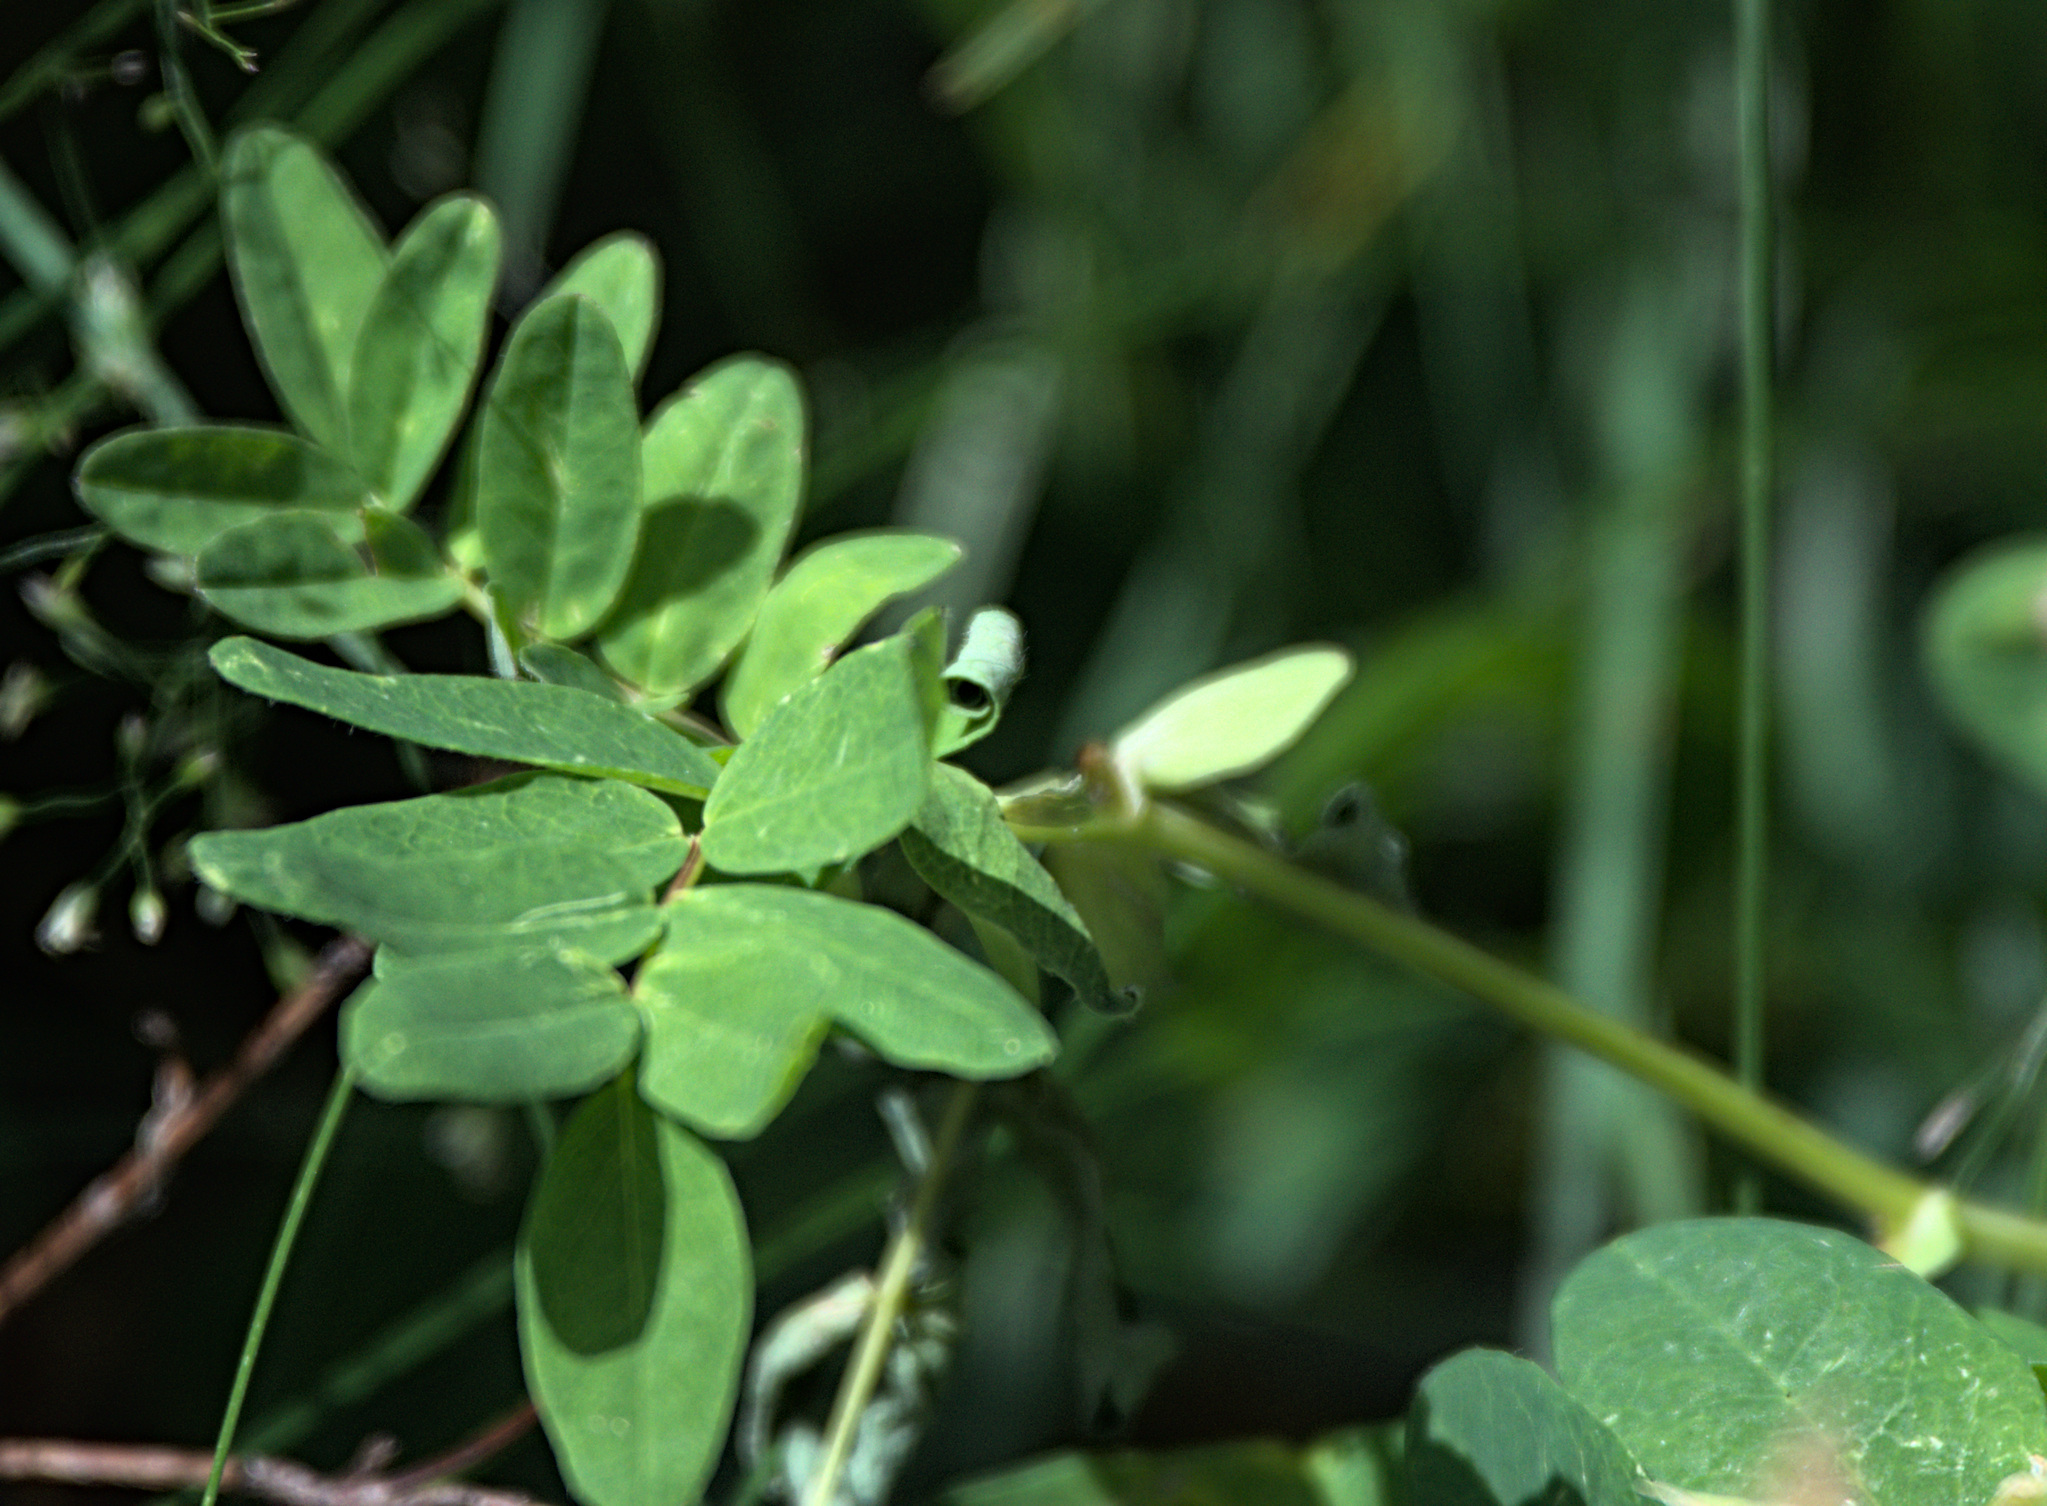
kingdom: Plantae
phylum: Tracheophyta
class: Magnoliopsida
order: Fabales
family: Fabaceae
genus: Astragalus
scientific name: Astragalus frigidus
